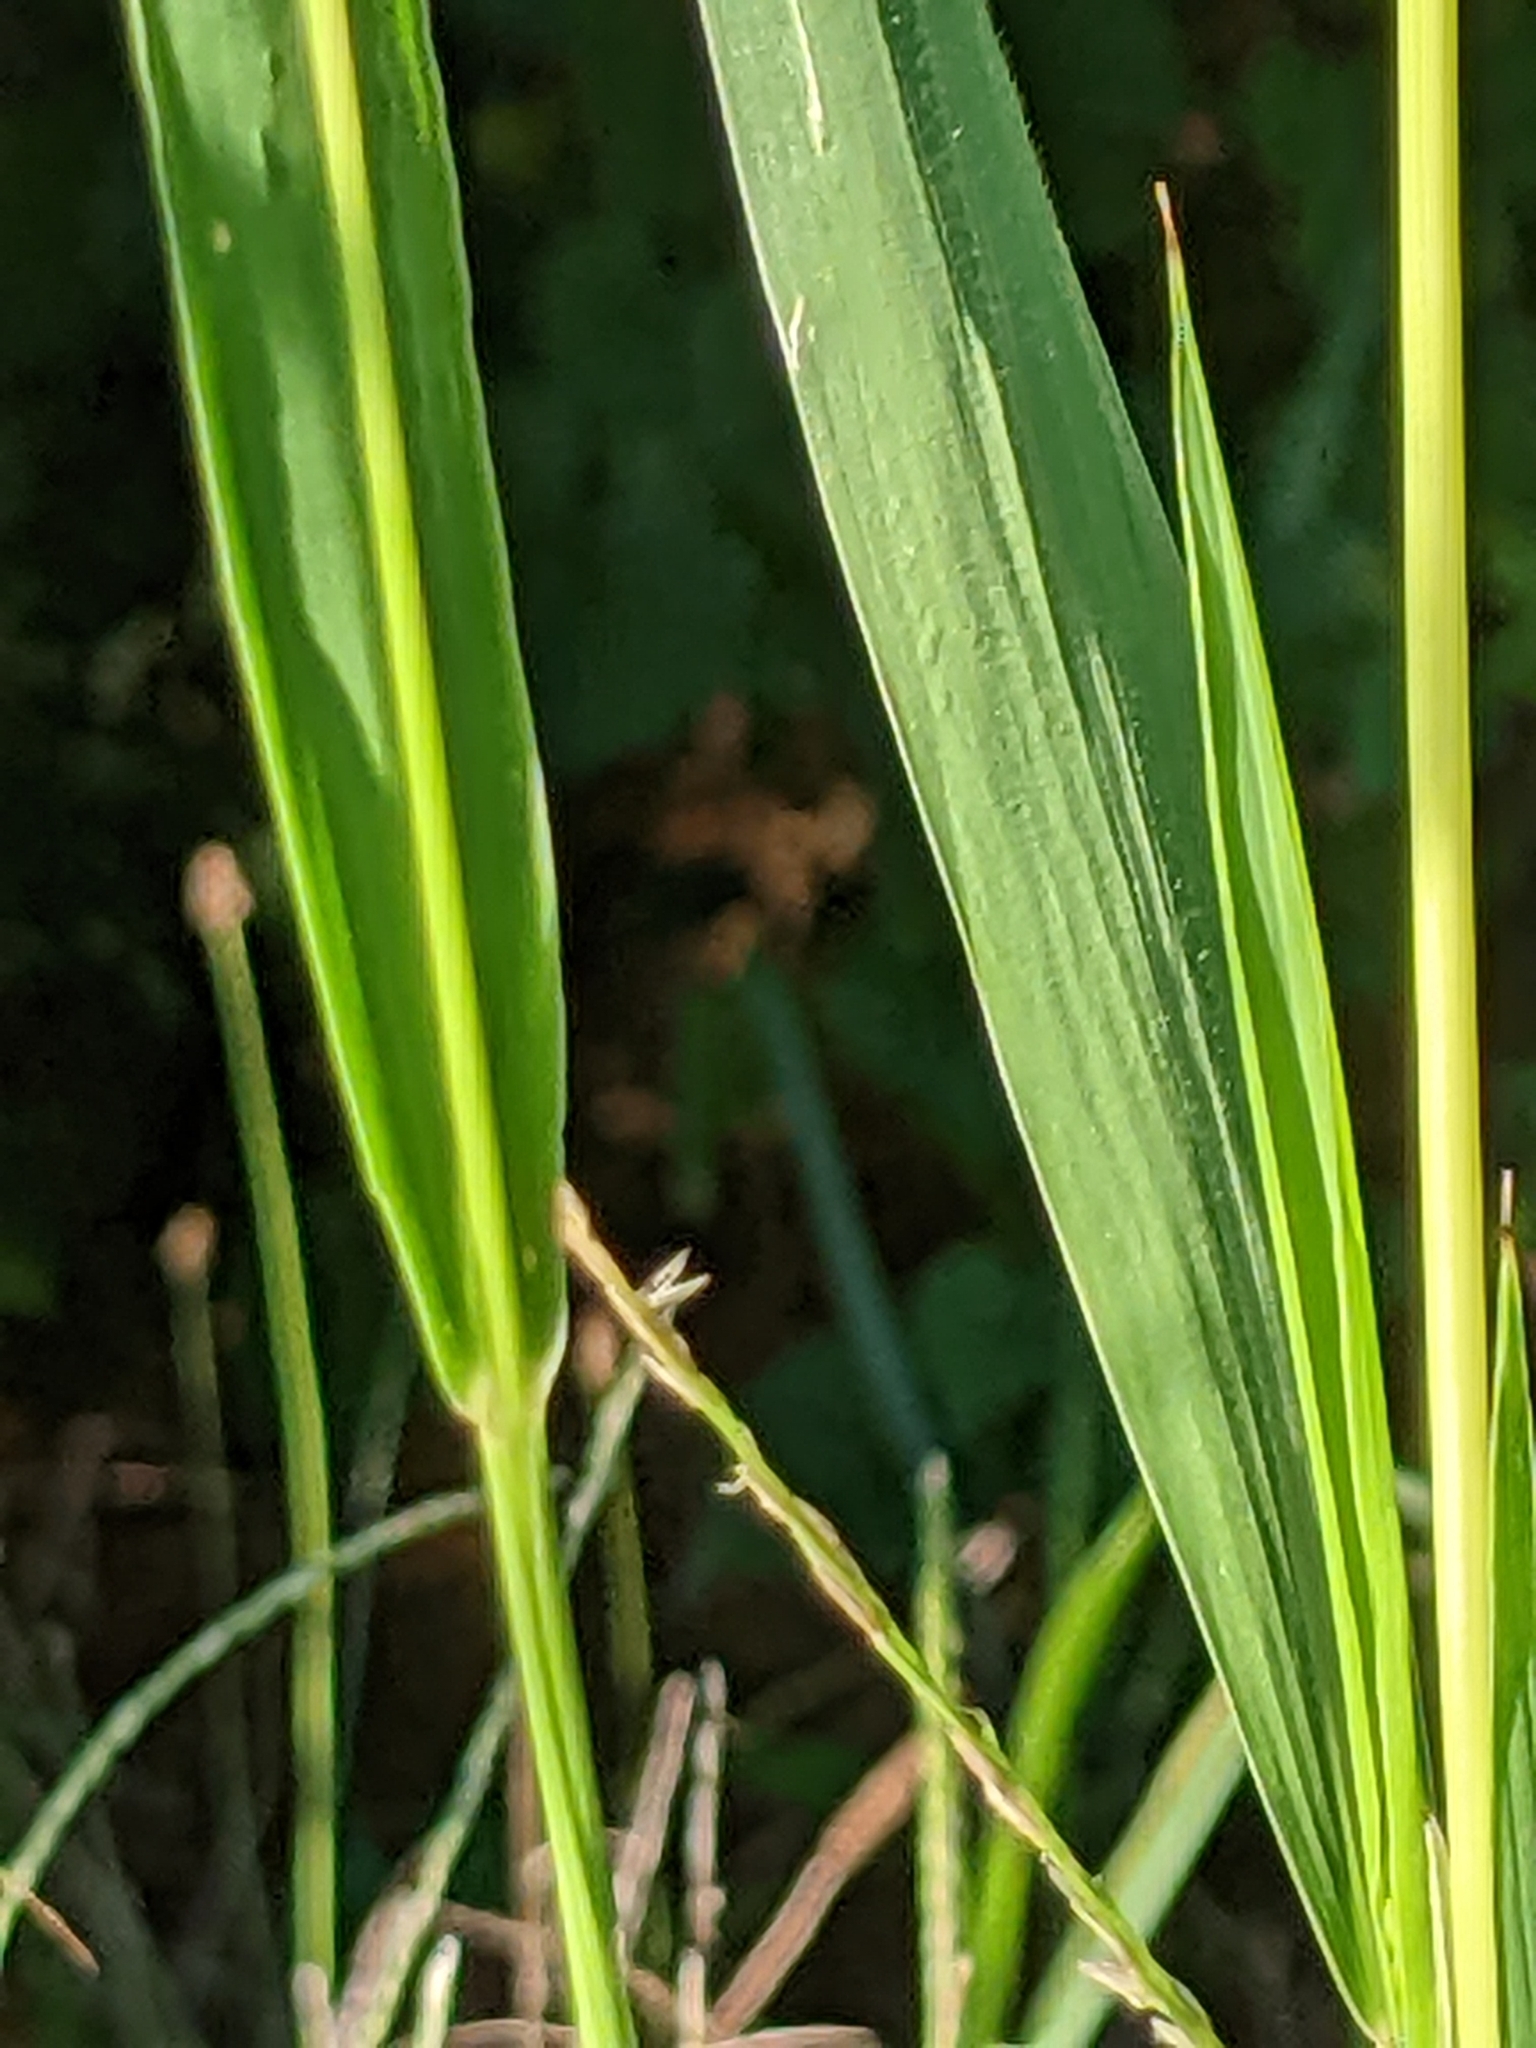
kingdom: Plantae
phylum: Tracheophyta
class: Liliopsida
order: Poales
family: Poaceae
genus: Setaria
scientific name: Setaria faberi
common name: Nodding bristle-grass
